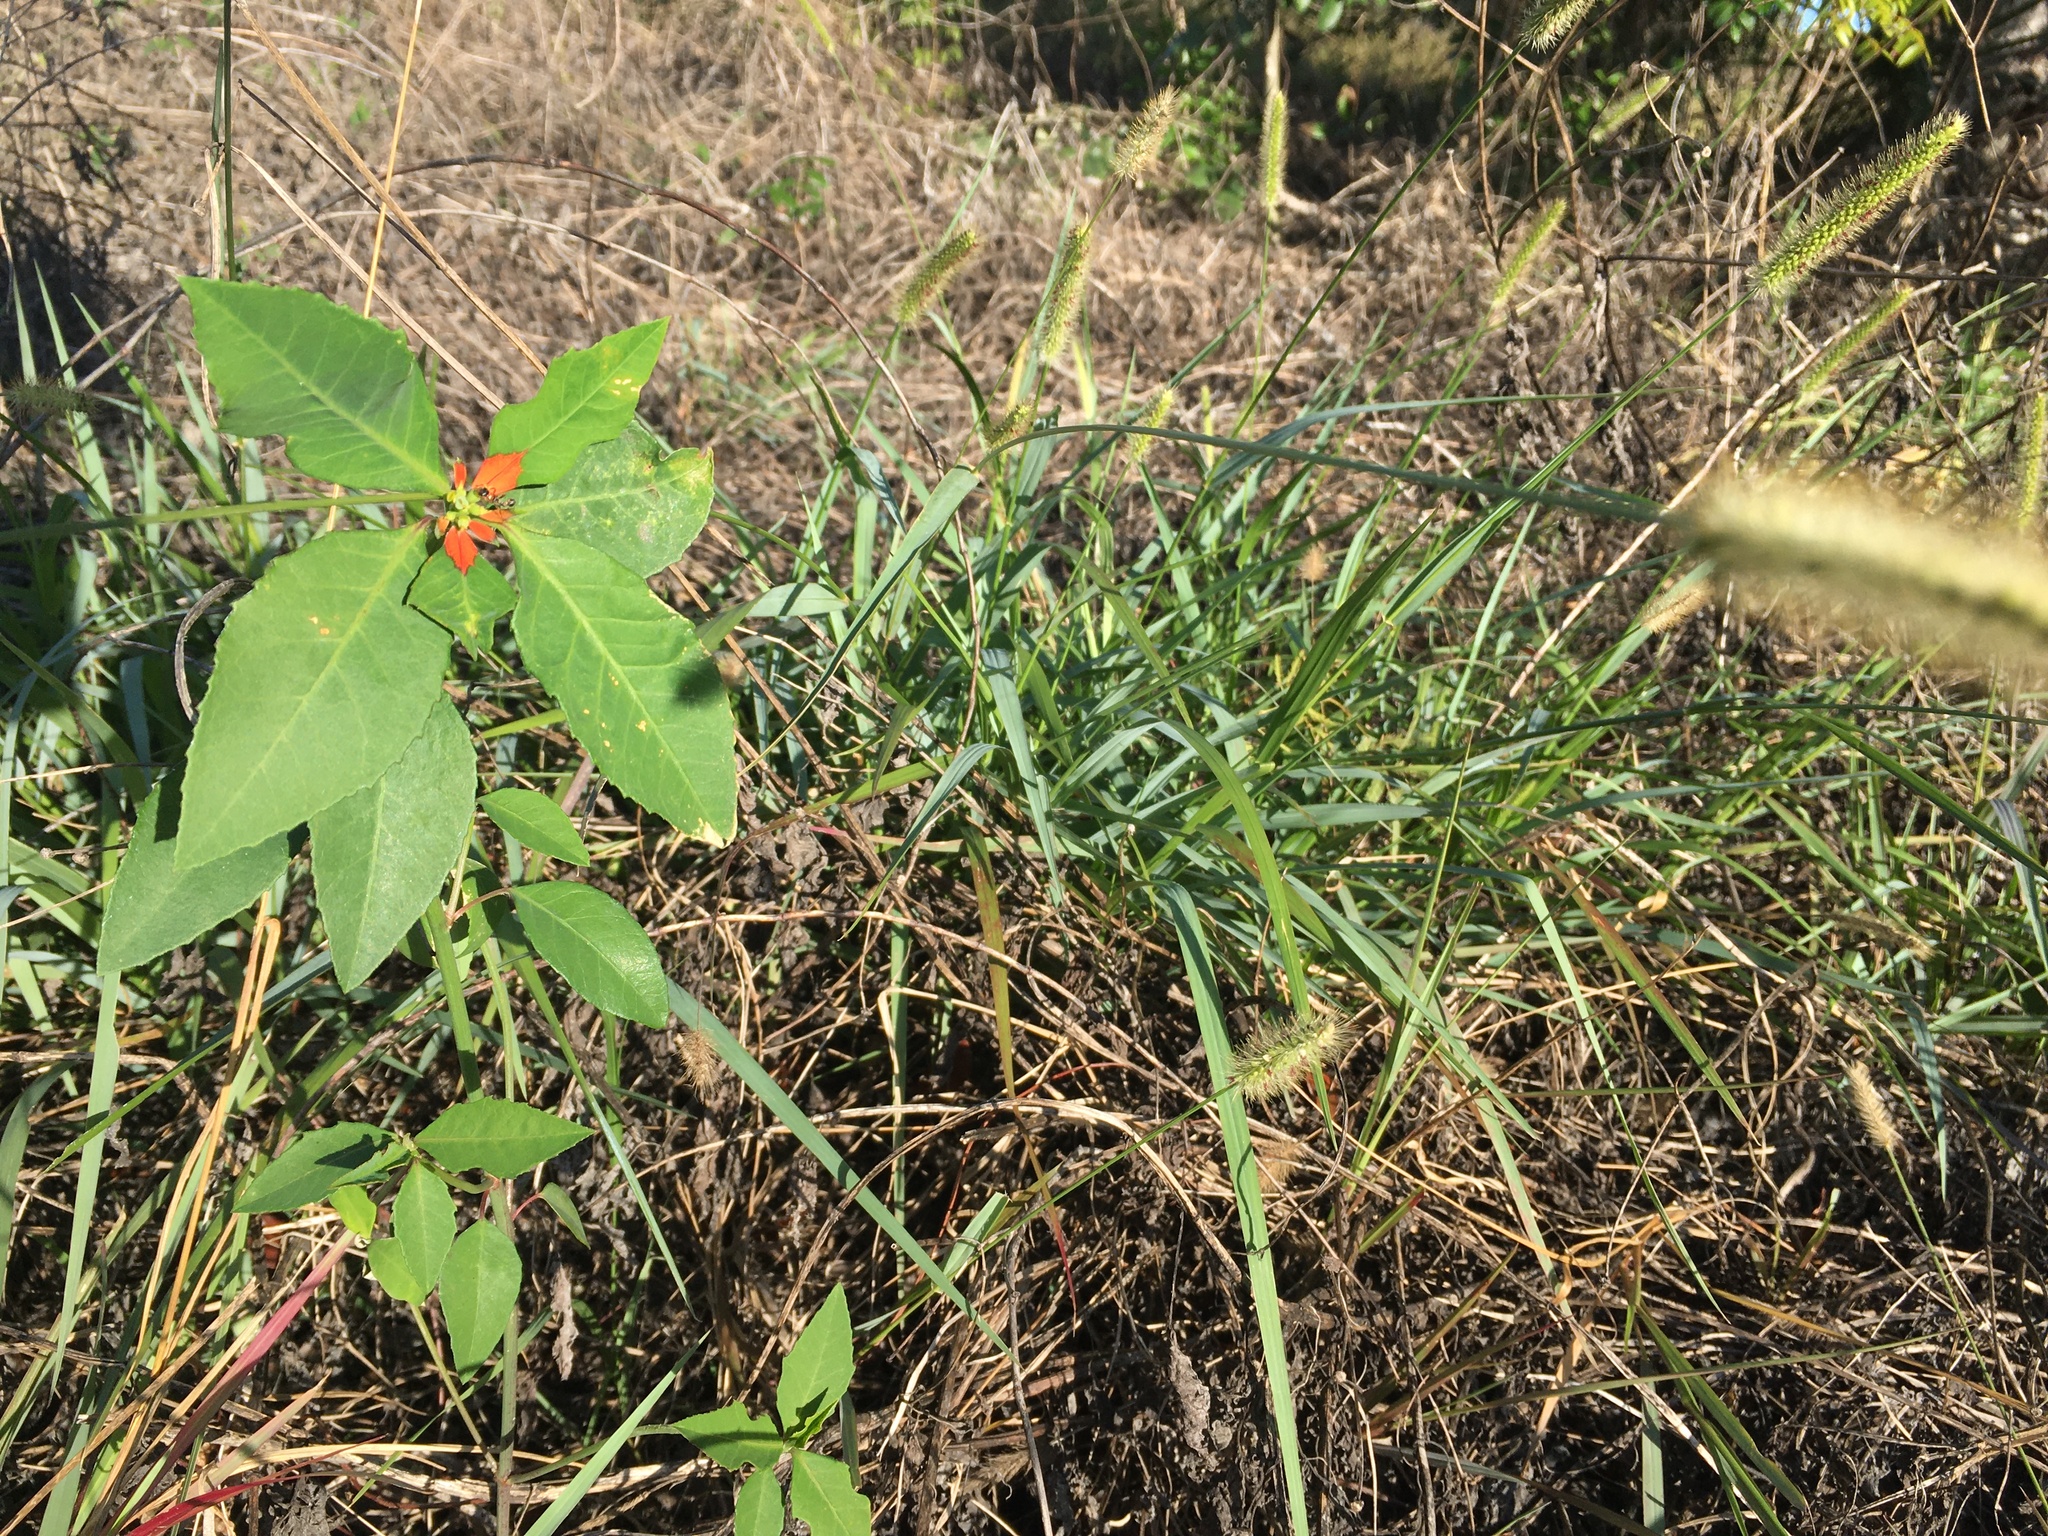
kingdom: Plantae
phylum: Tracheophyta
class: Magnoliopsida
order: Malpighiales
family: Euphorbiaceae
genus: Euphorbia
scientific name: Euphorbia heterophylla
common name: Mexican fireplant
